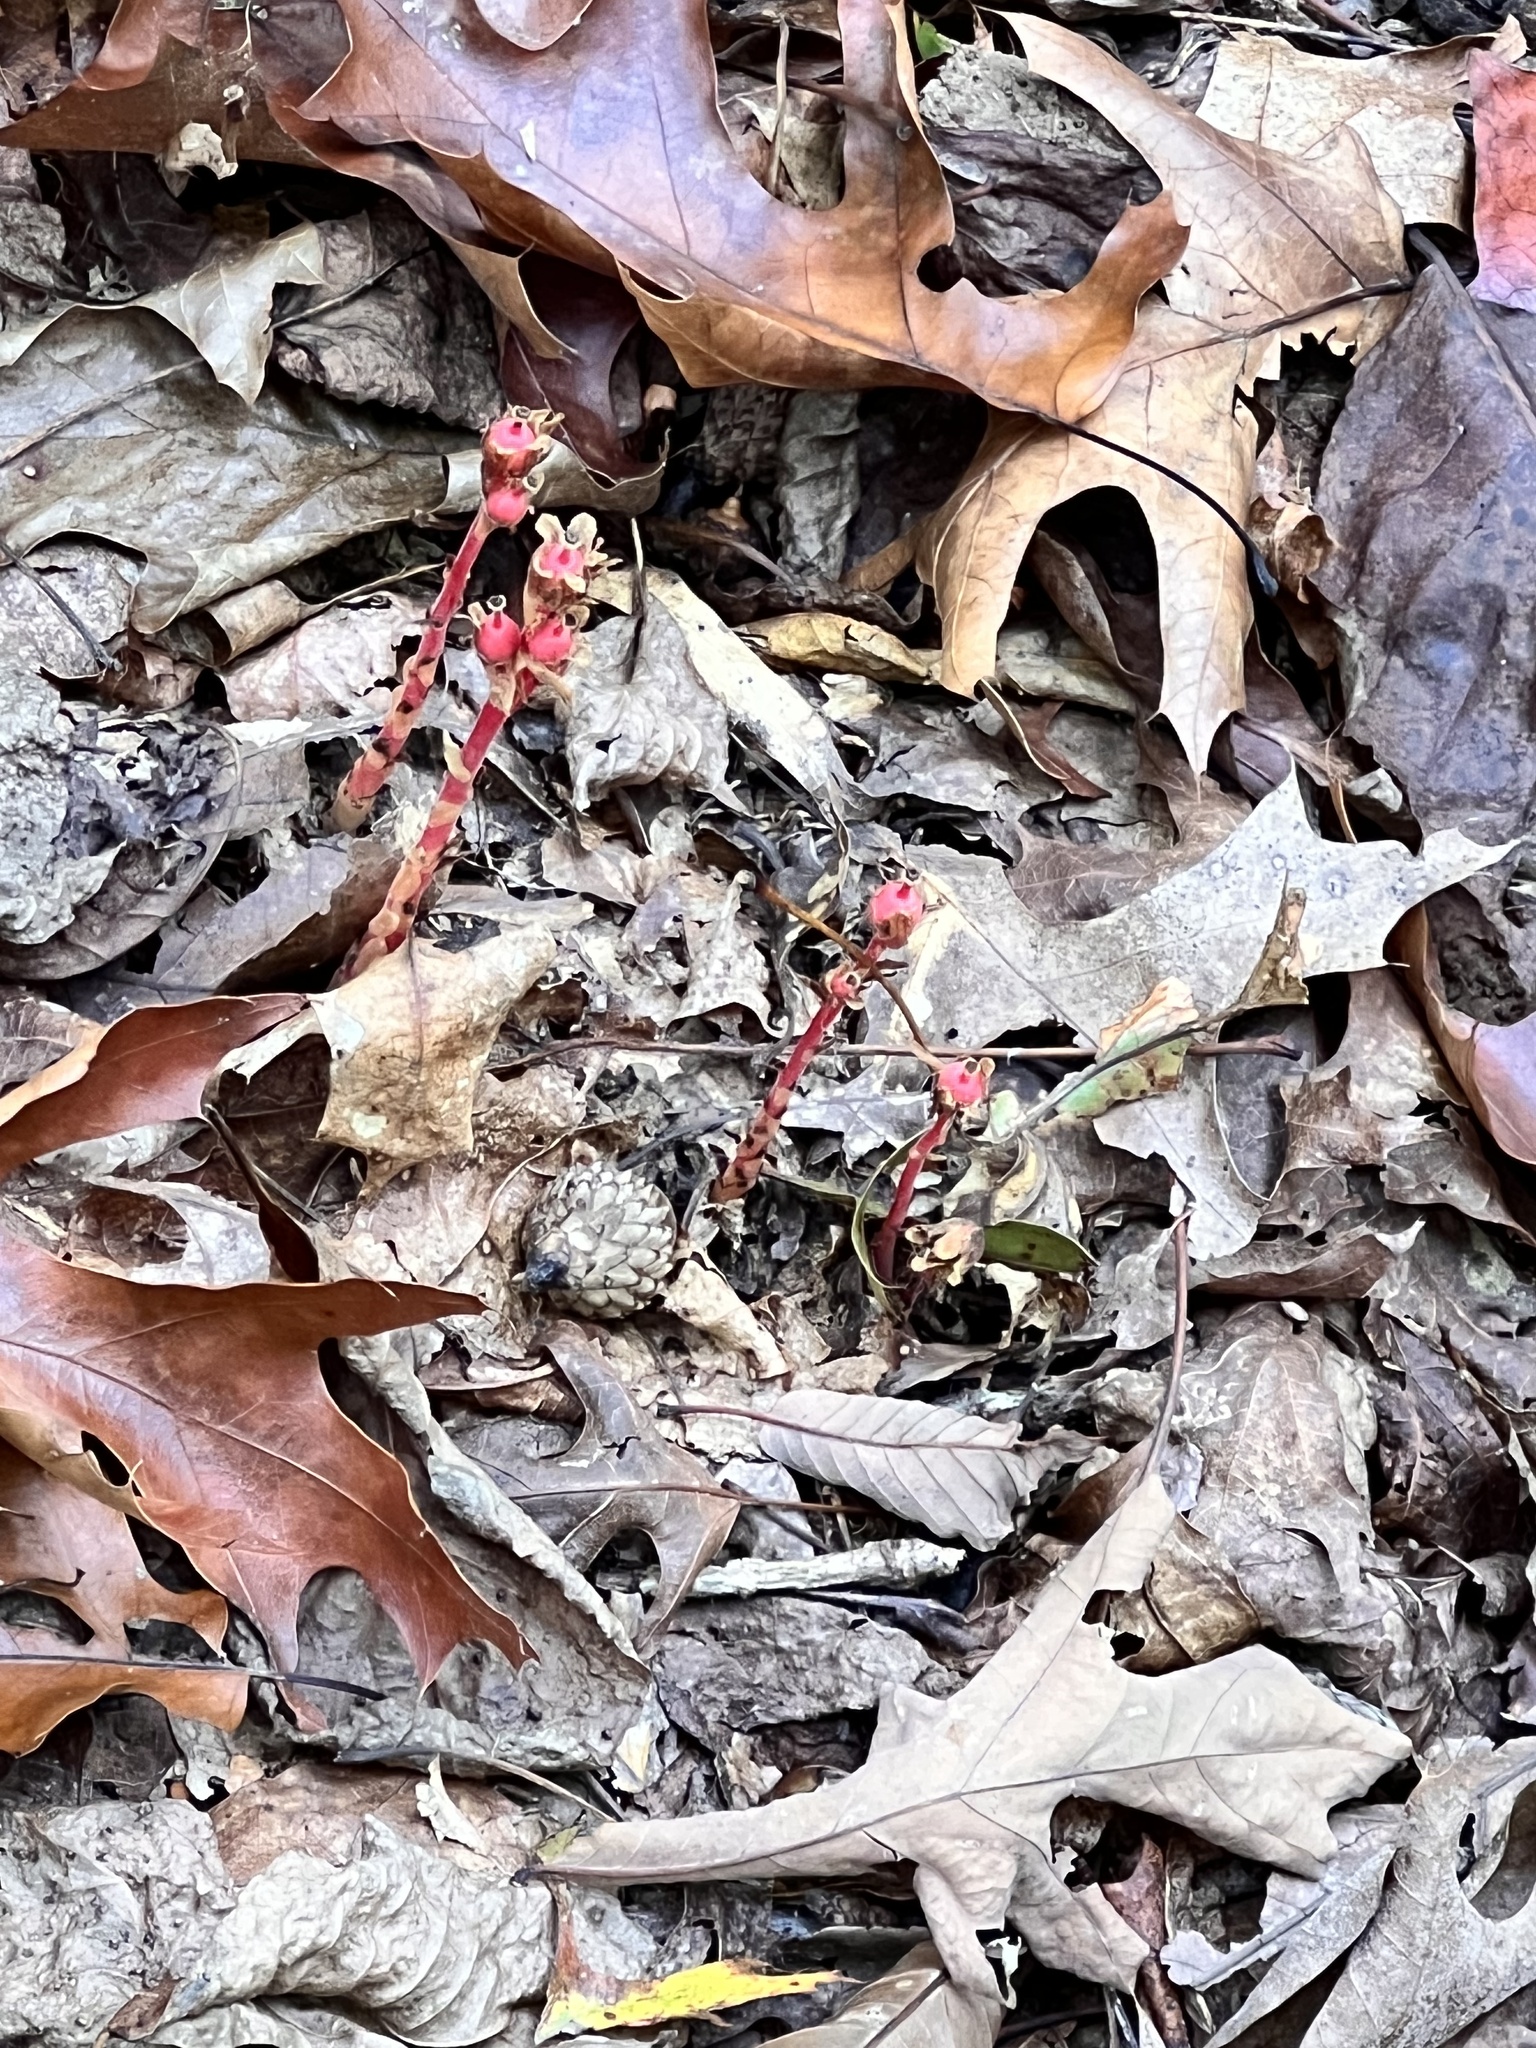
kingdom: Plantae
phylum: Tracheophyta
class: Magnoliopsida
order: Ericales
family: Ericaceae
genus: Hypopitys
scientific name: Hypopitys monotropa
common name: Yellow bird's-nest
